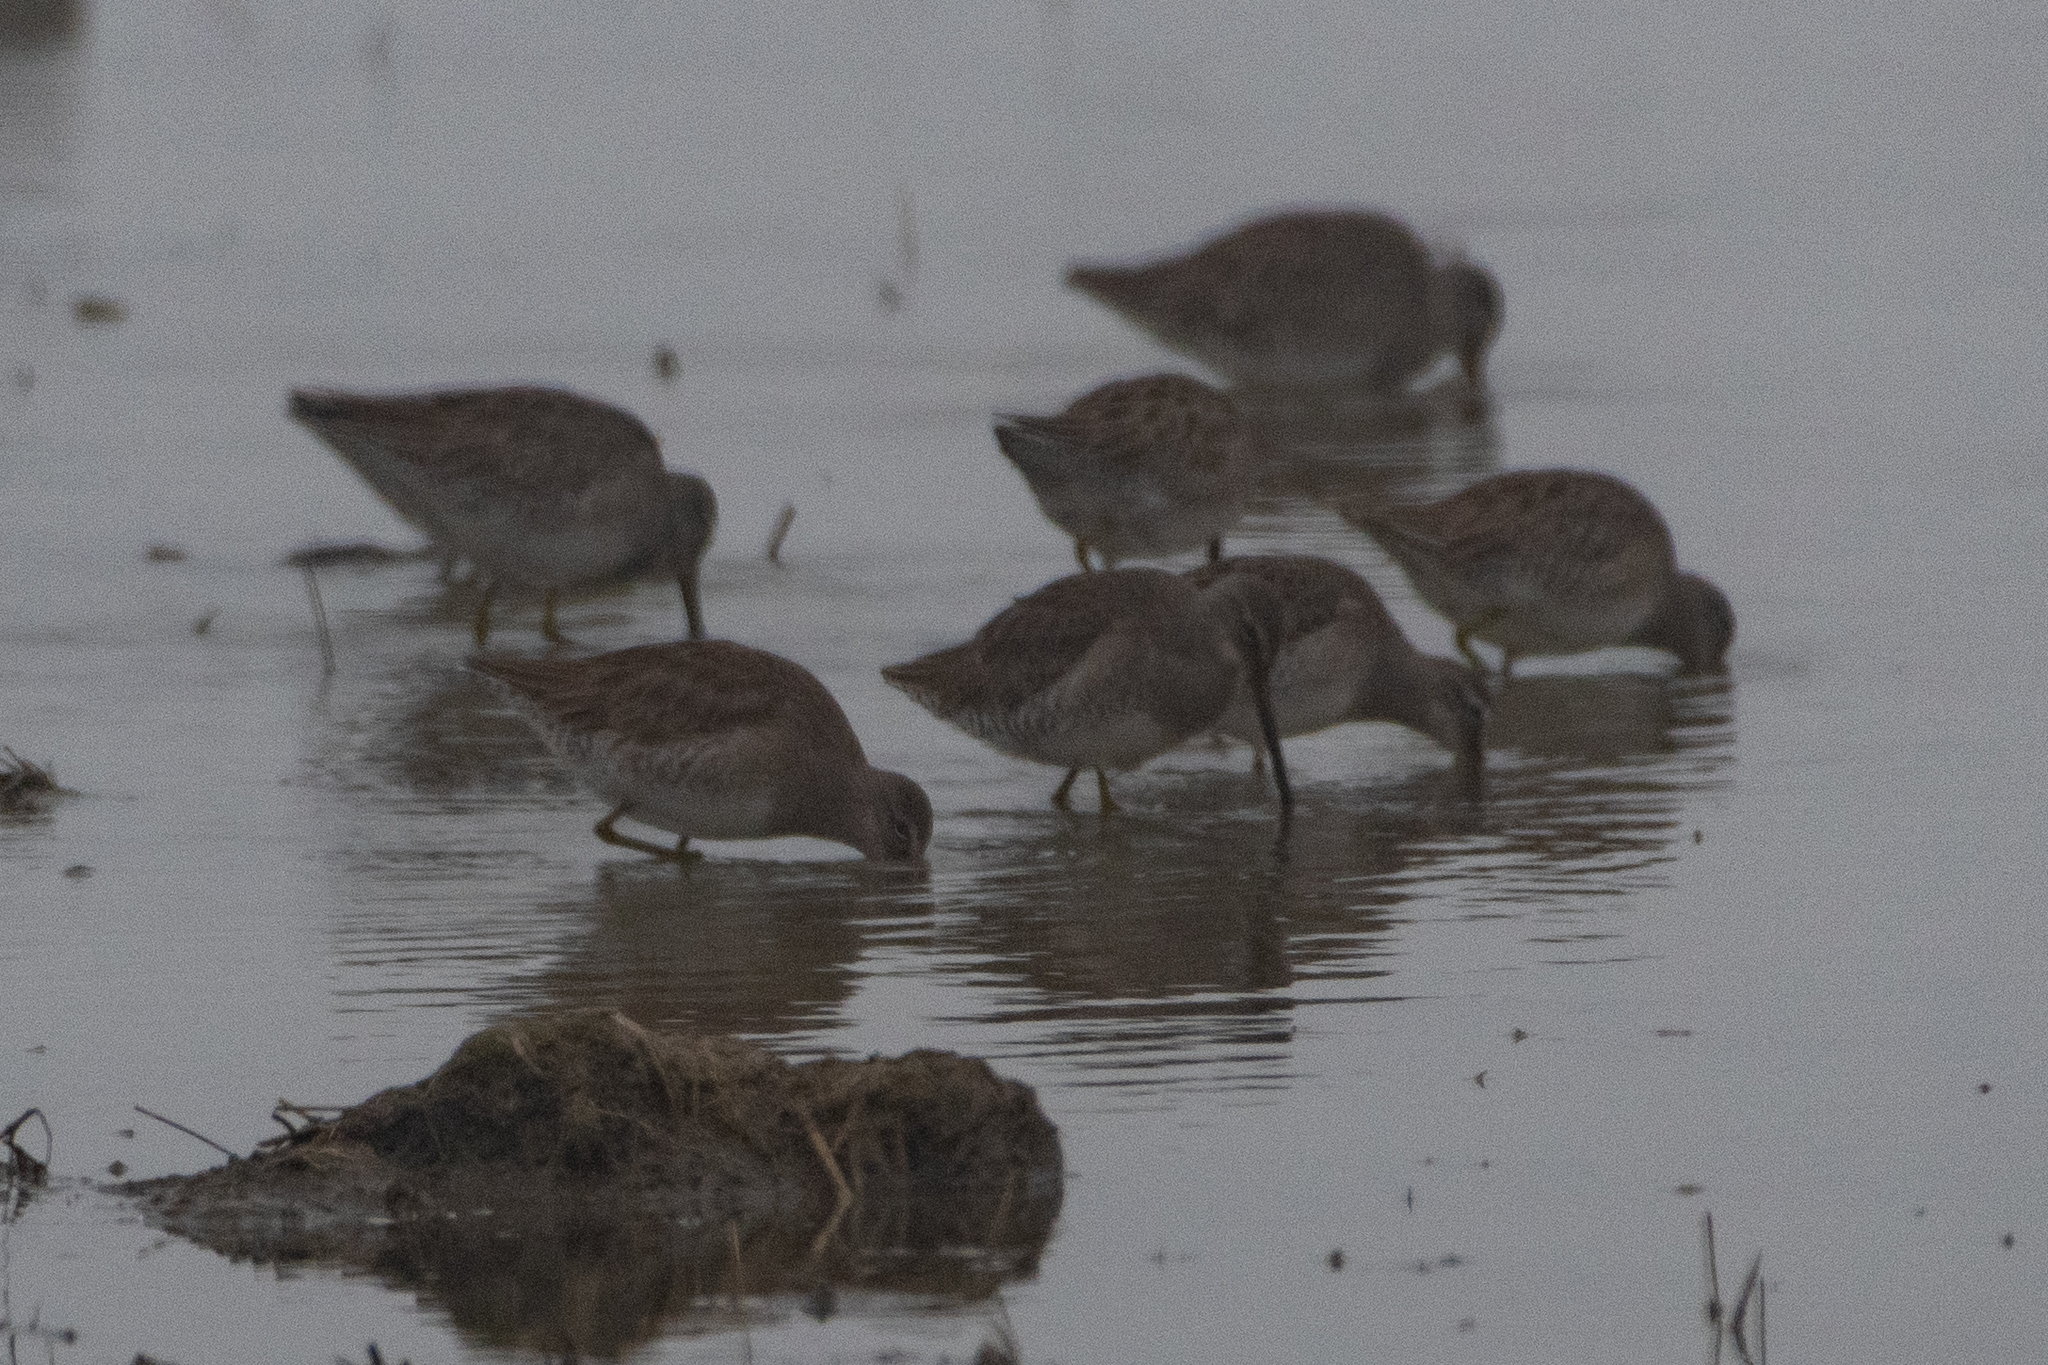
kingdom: Animalia
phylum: Chordata
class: Aves
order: Charadriiformes
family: Scolopacidae
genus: Limnodromus
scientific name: Limnodromus scolopaceus
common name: Long-billed dowitcher
